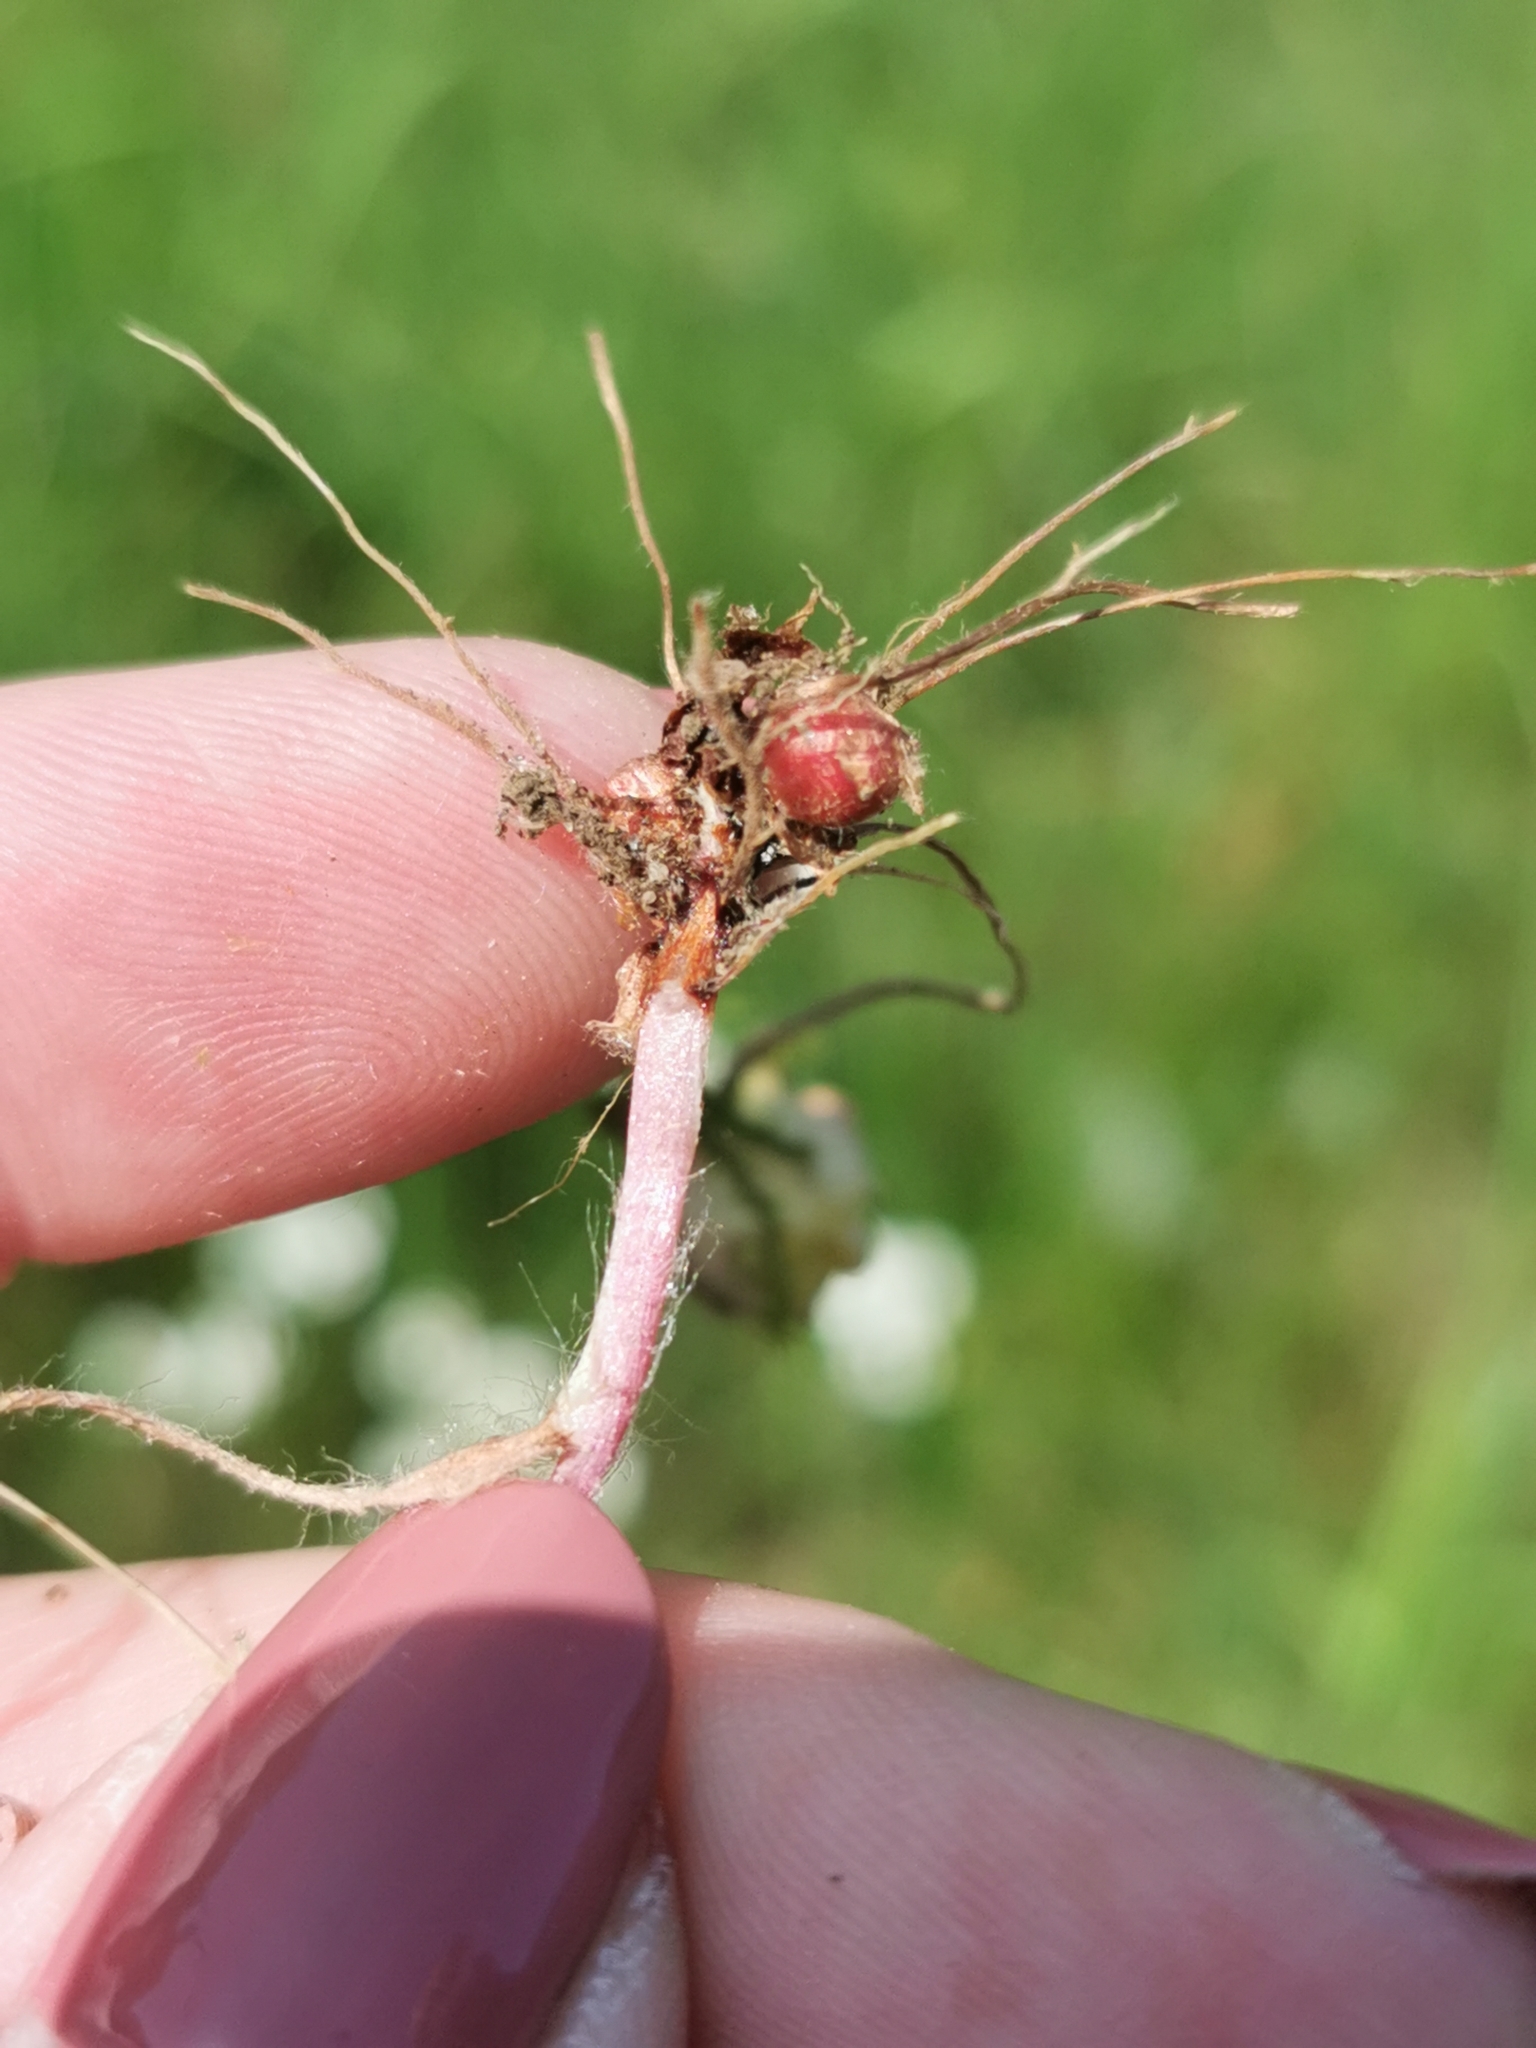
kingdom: Plantae
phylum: Tracheophyta
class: Magnoliopsida
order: Saxifragales
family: Saxifragaceae
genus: Saxifraga
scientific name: Saxifraga granulata
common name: Meadow saxifrage
